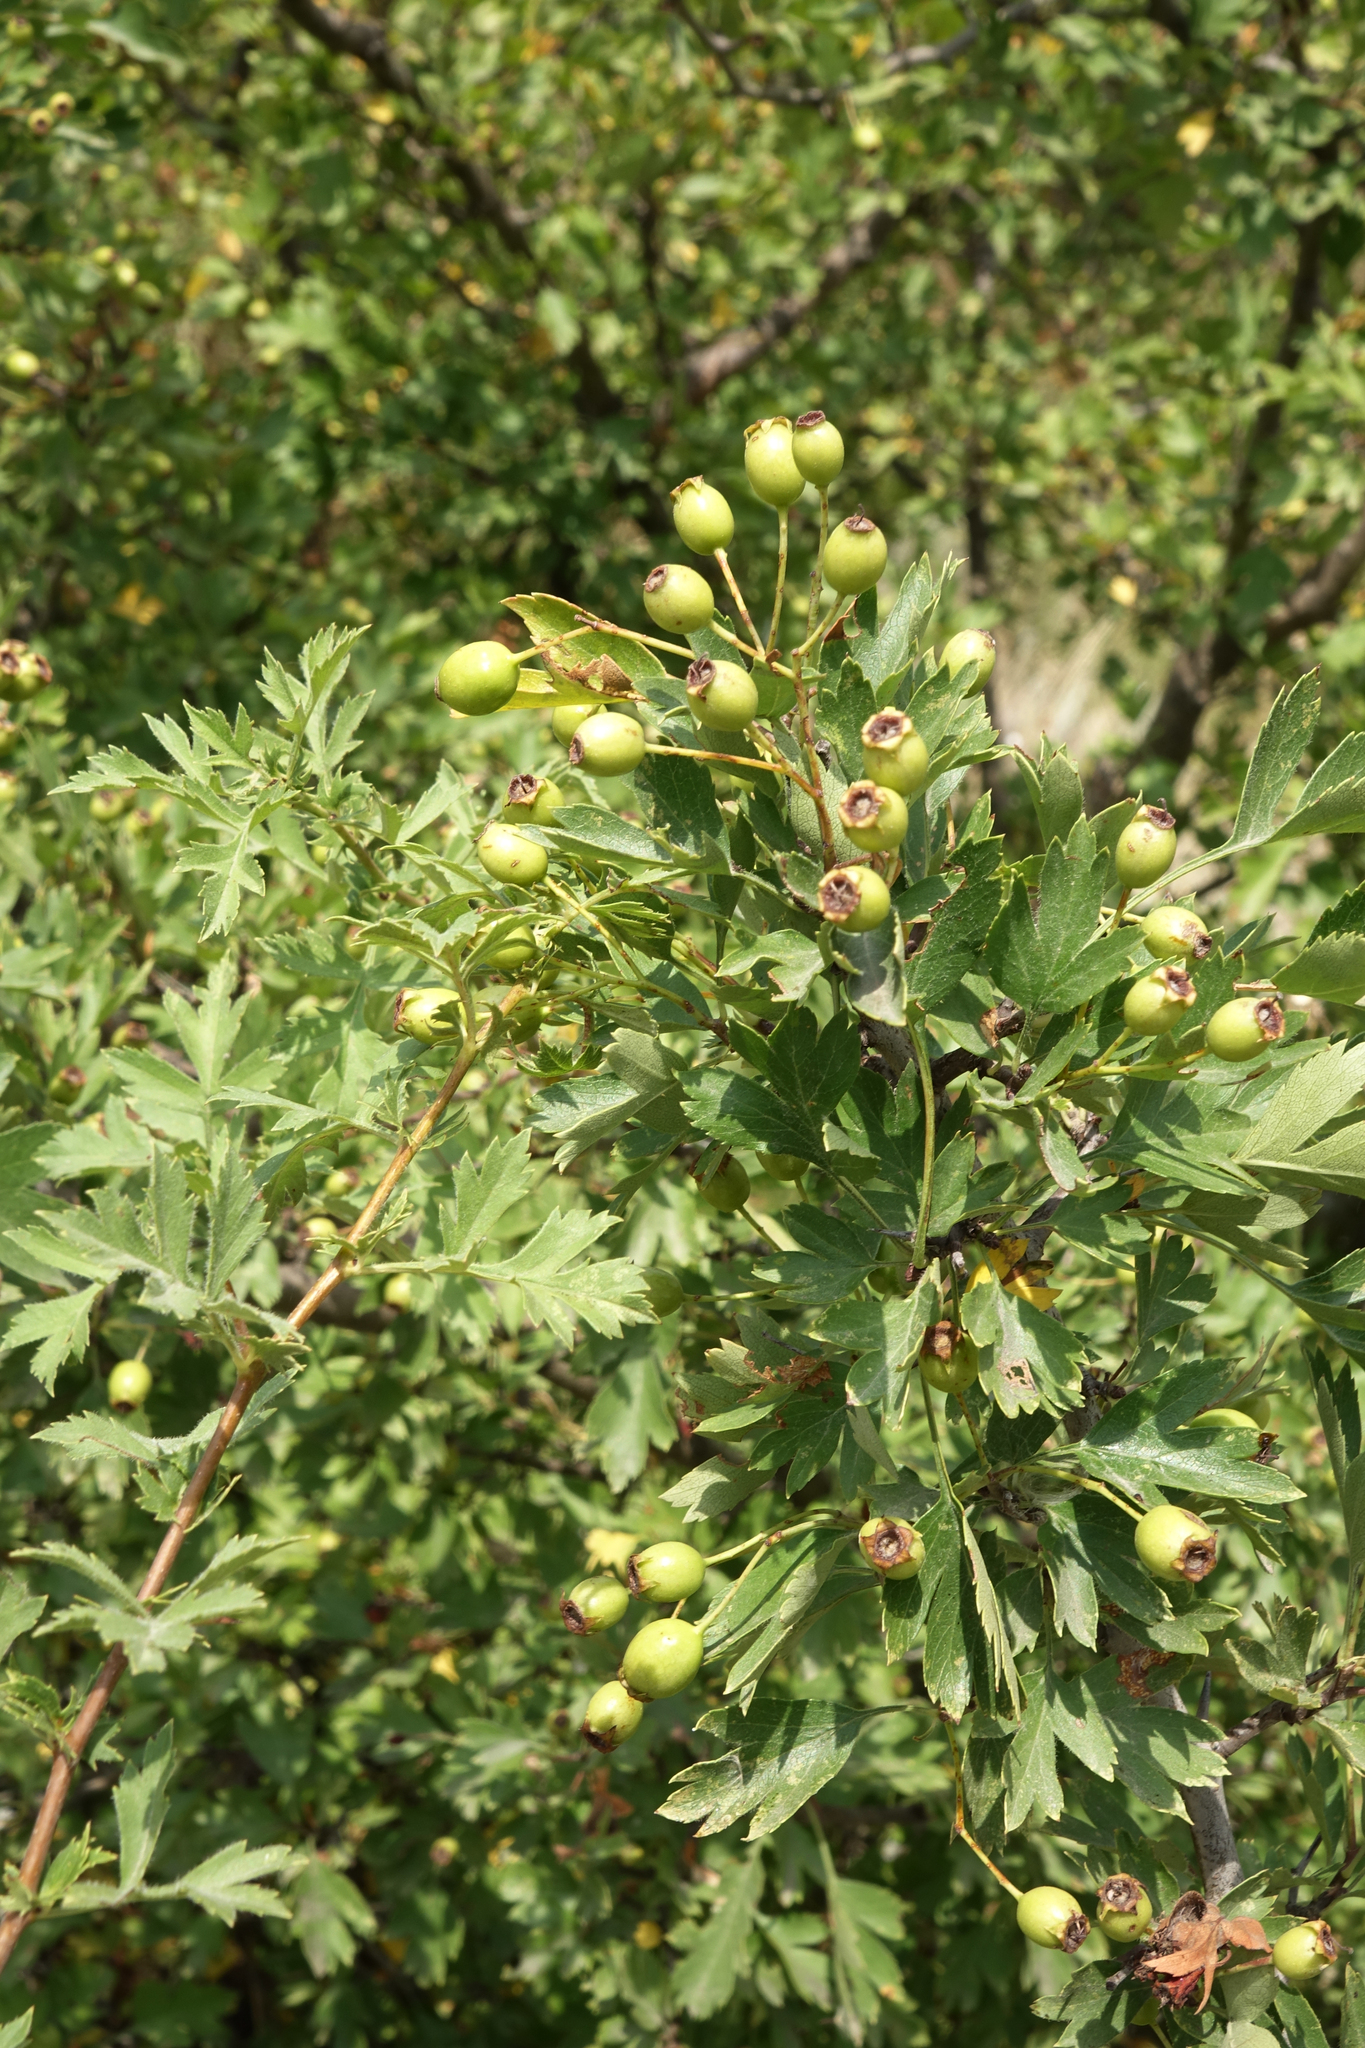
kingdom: Plantae
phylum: Tracheophyta
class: Magnoliopsida
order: Rosales
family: Rosaceae
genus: Crataegus
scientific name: Crataegus pseudoheterophylla
